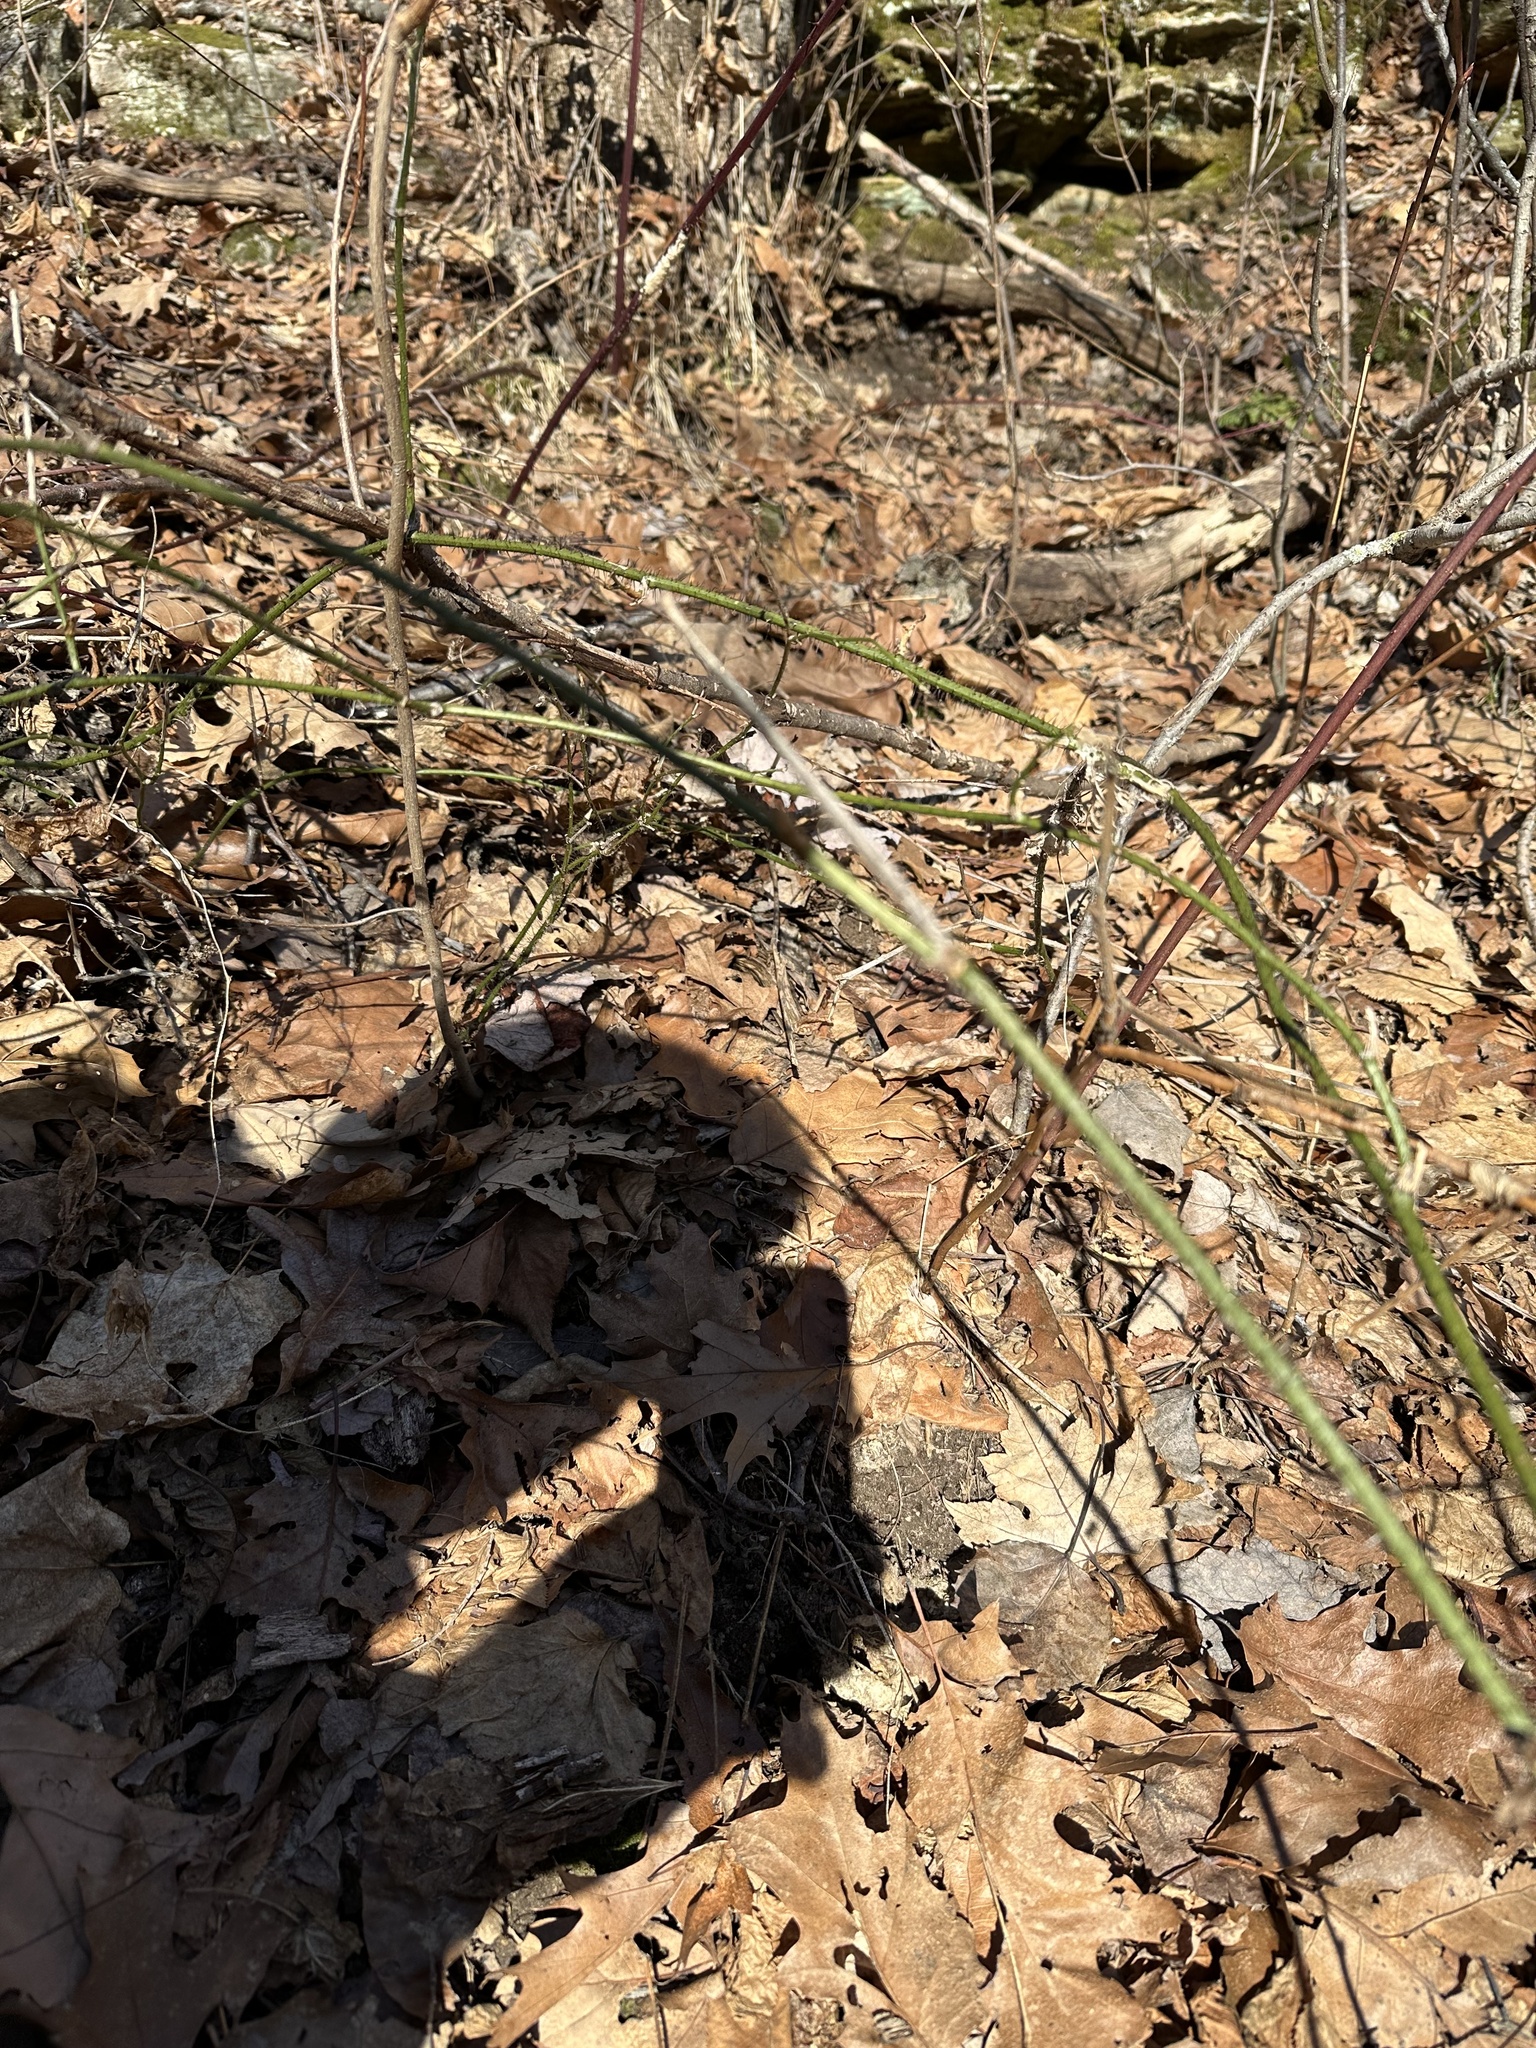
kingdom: Plantae
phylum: Tracheophyta
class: Liliopsida
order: Liliales
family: Smilacaceae
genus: Smilax
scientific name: Smilax tamnoides
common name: Hellfetter
